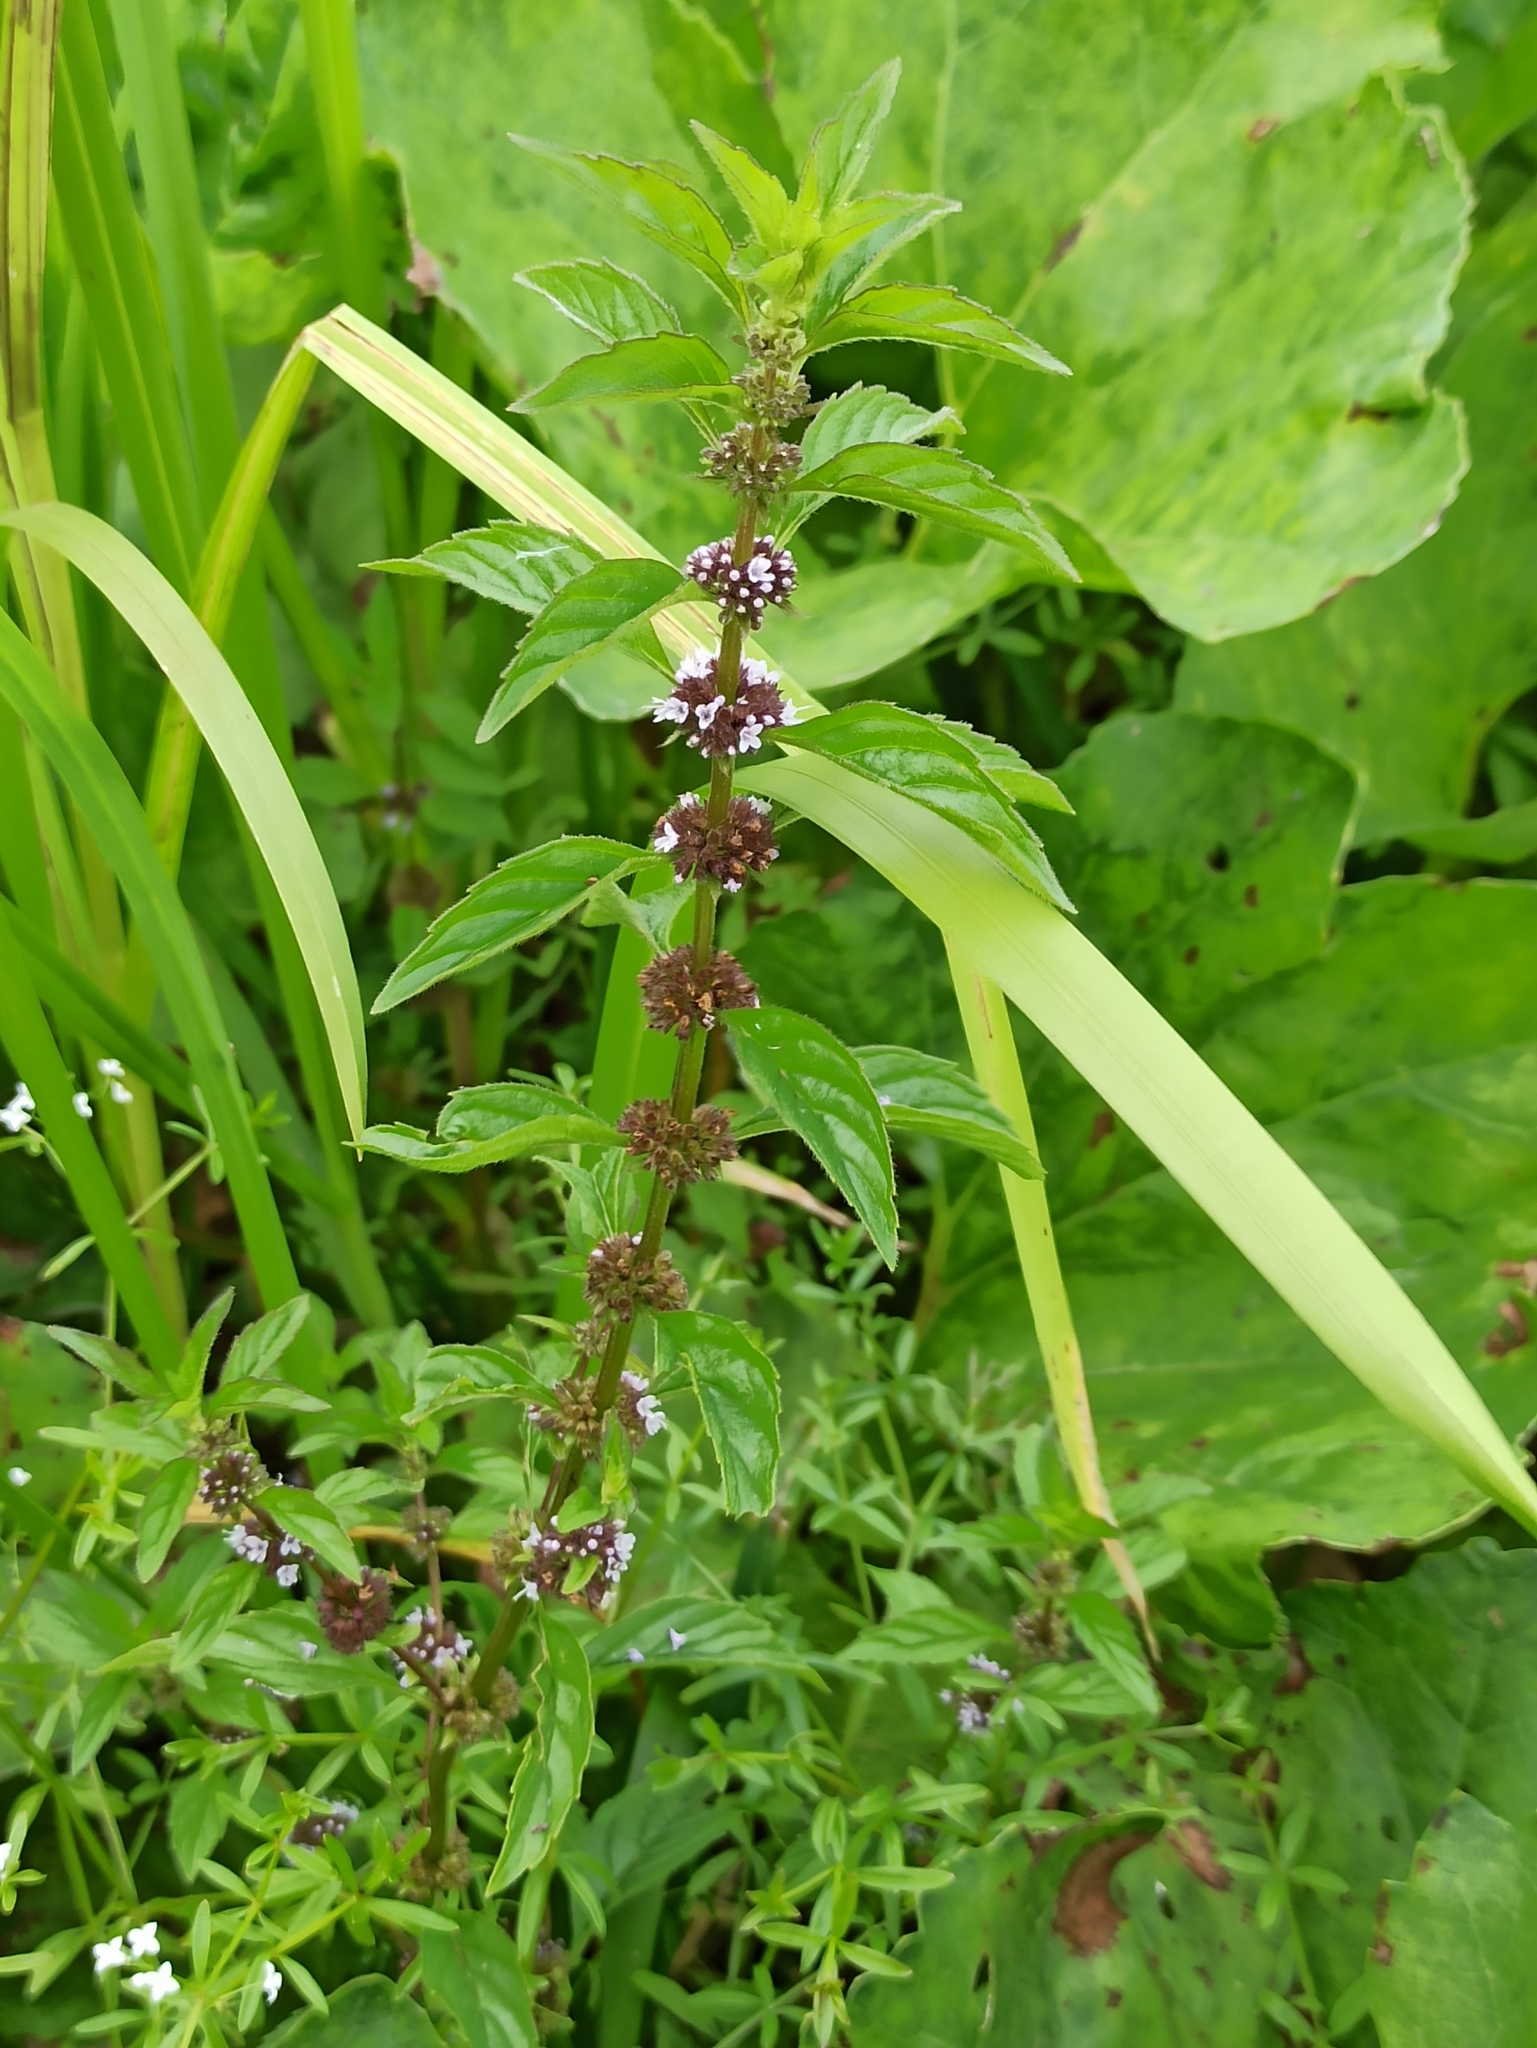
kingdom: Plantae
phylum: Tracheophyta
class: Magnoliopsida
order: Lamiales
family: Lamiaceae
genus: Mentha
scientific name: Mentha arvensis
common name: Corn mint
